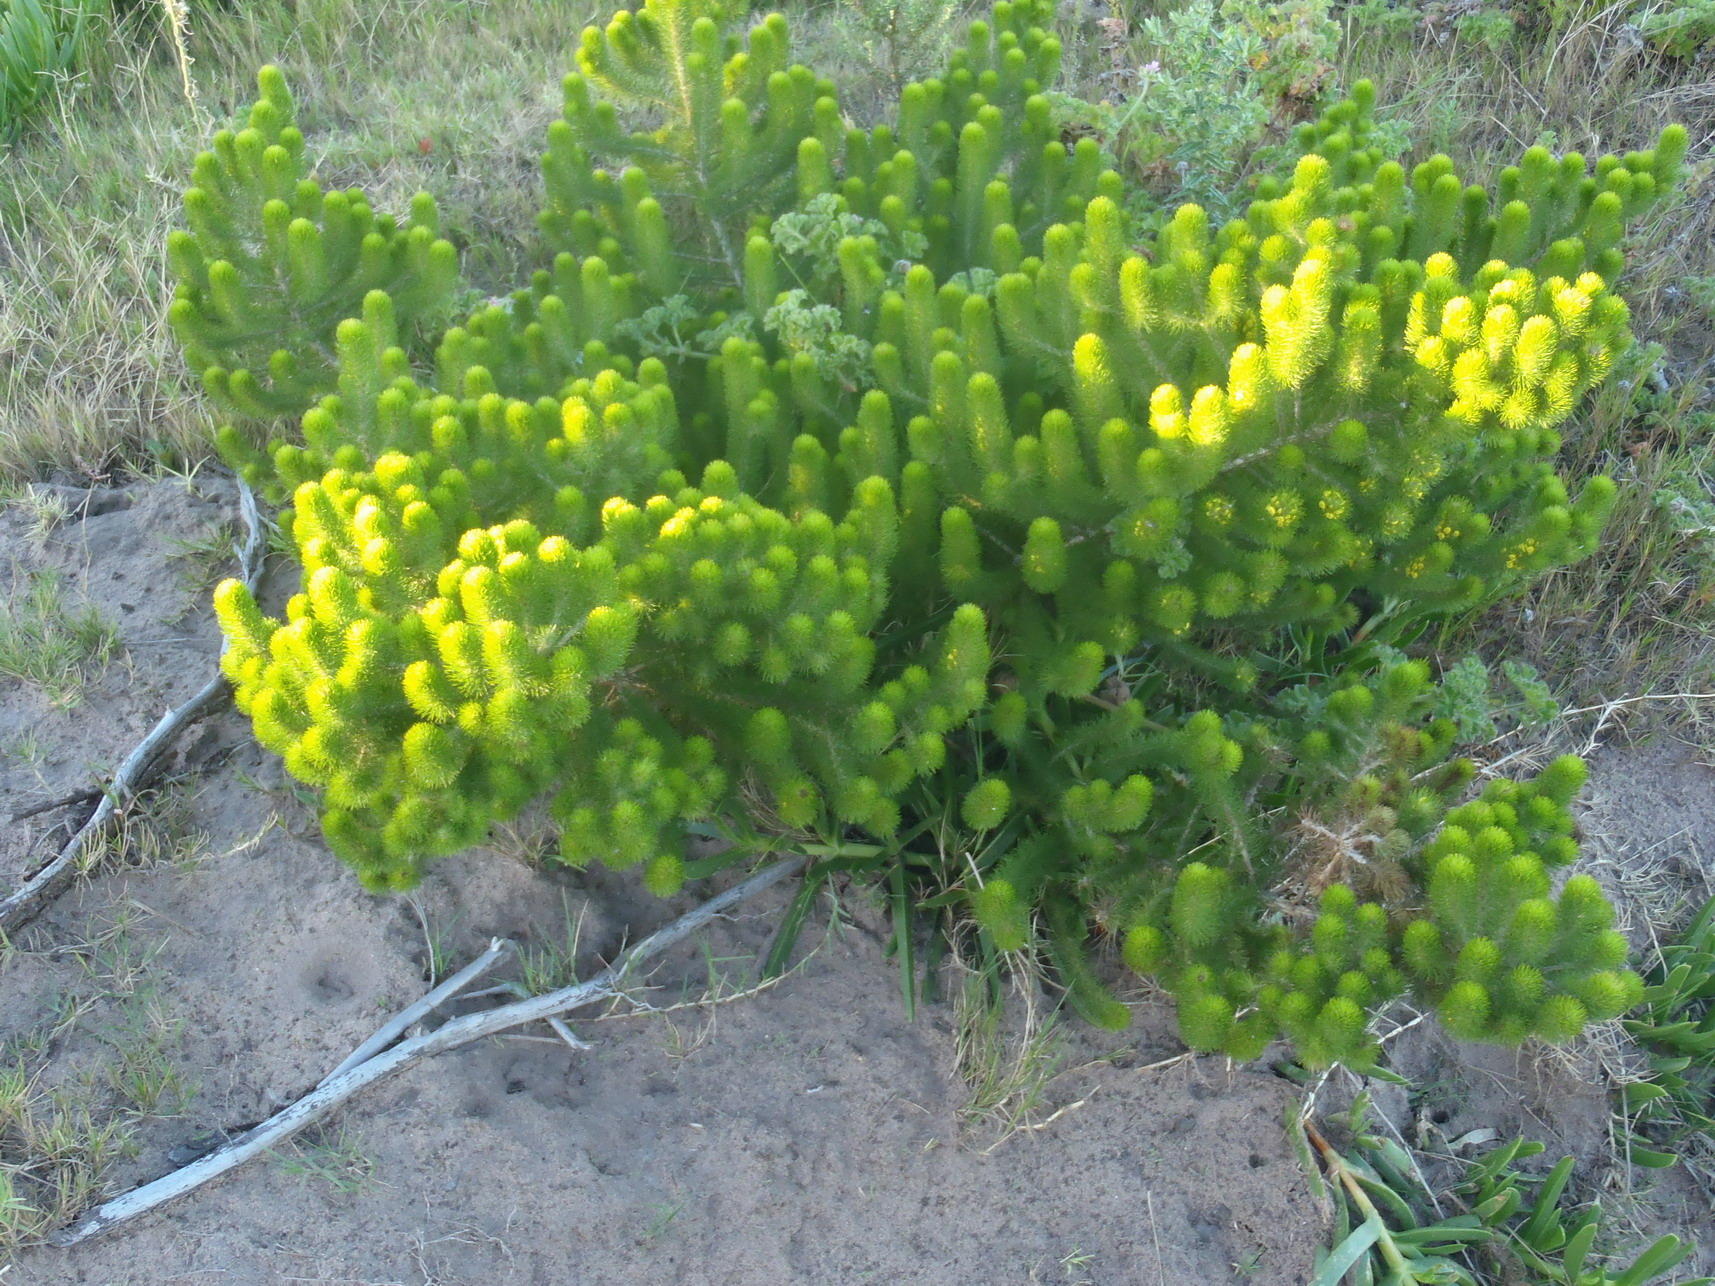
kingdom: Plantae
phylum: Tracheophyta
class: Magnoliopsida
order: Fabales
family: Fabaceae
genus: Aspalathus
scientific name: Aspalathus alopecurus
